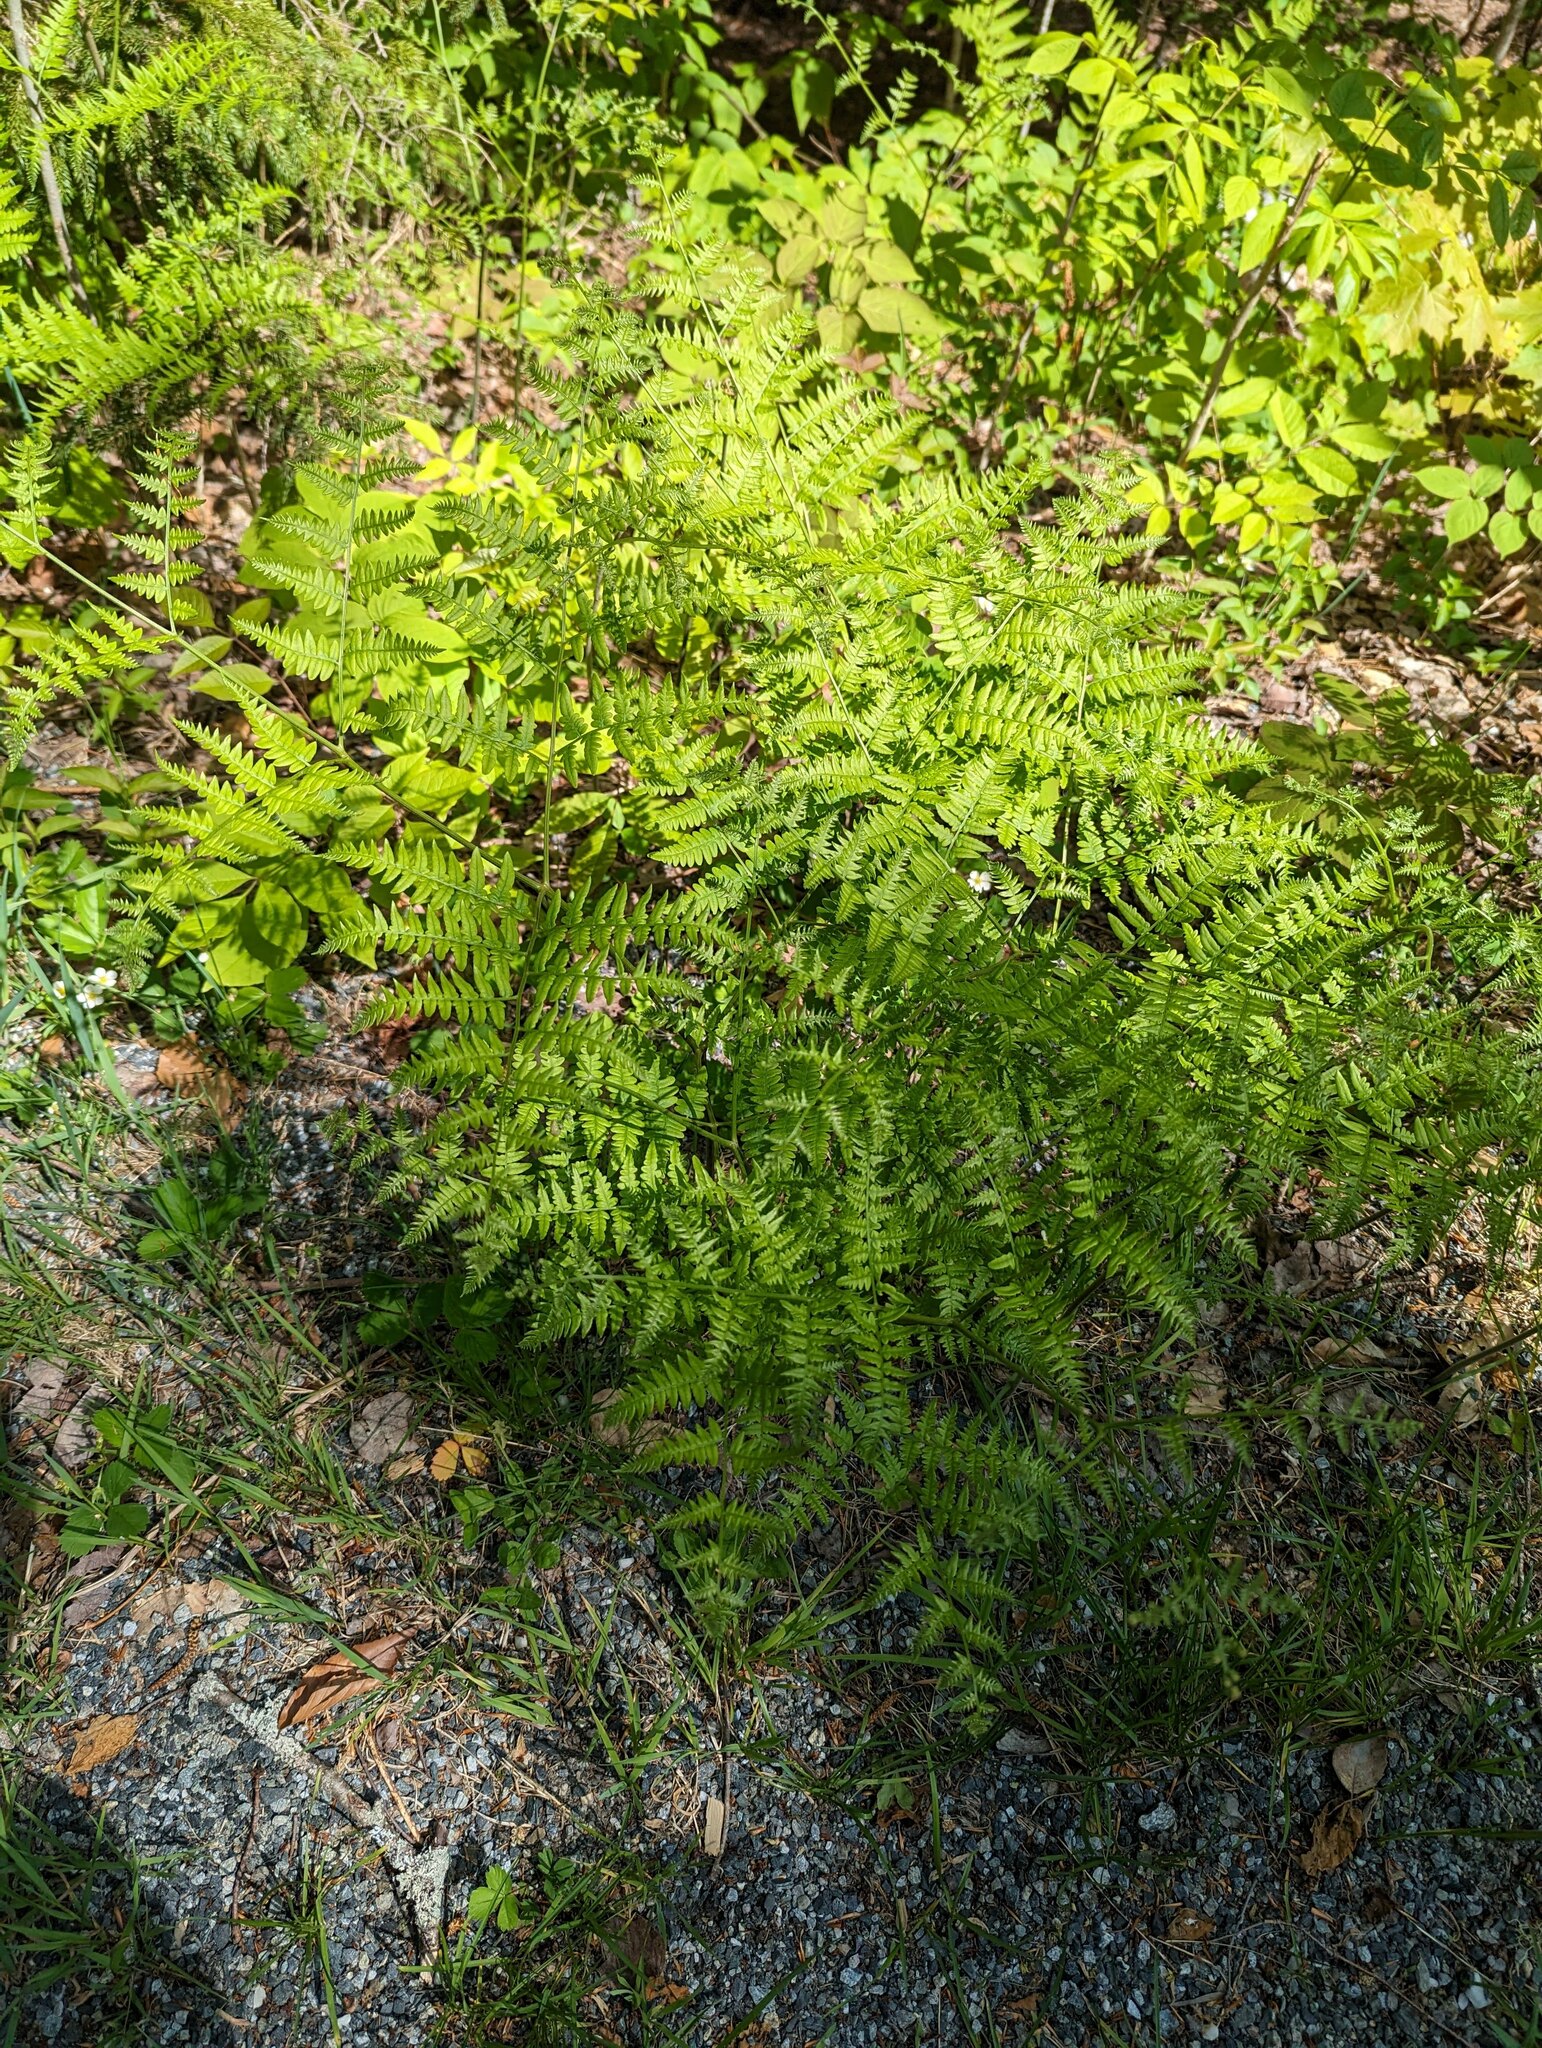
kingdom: Plantae
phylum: Tracheophyta
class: Polypodiopsida
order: Polypodiales
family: Dennstaedtiaceae
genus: Pteridium
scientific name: Pteridium aquilinum
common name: Bracken
